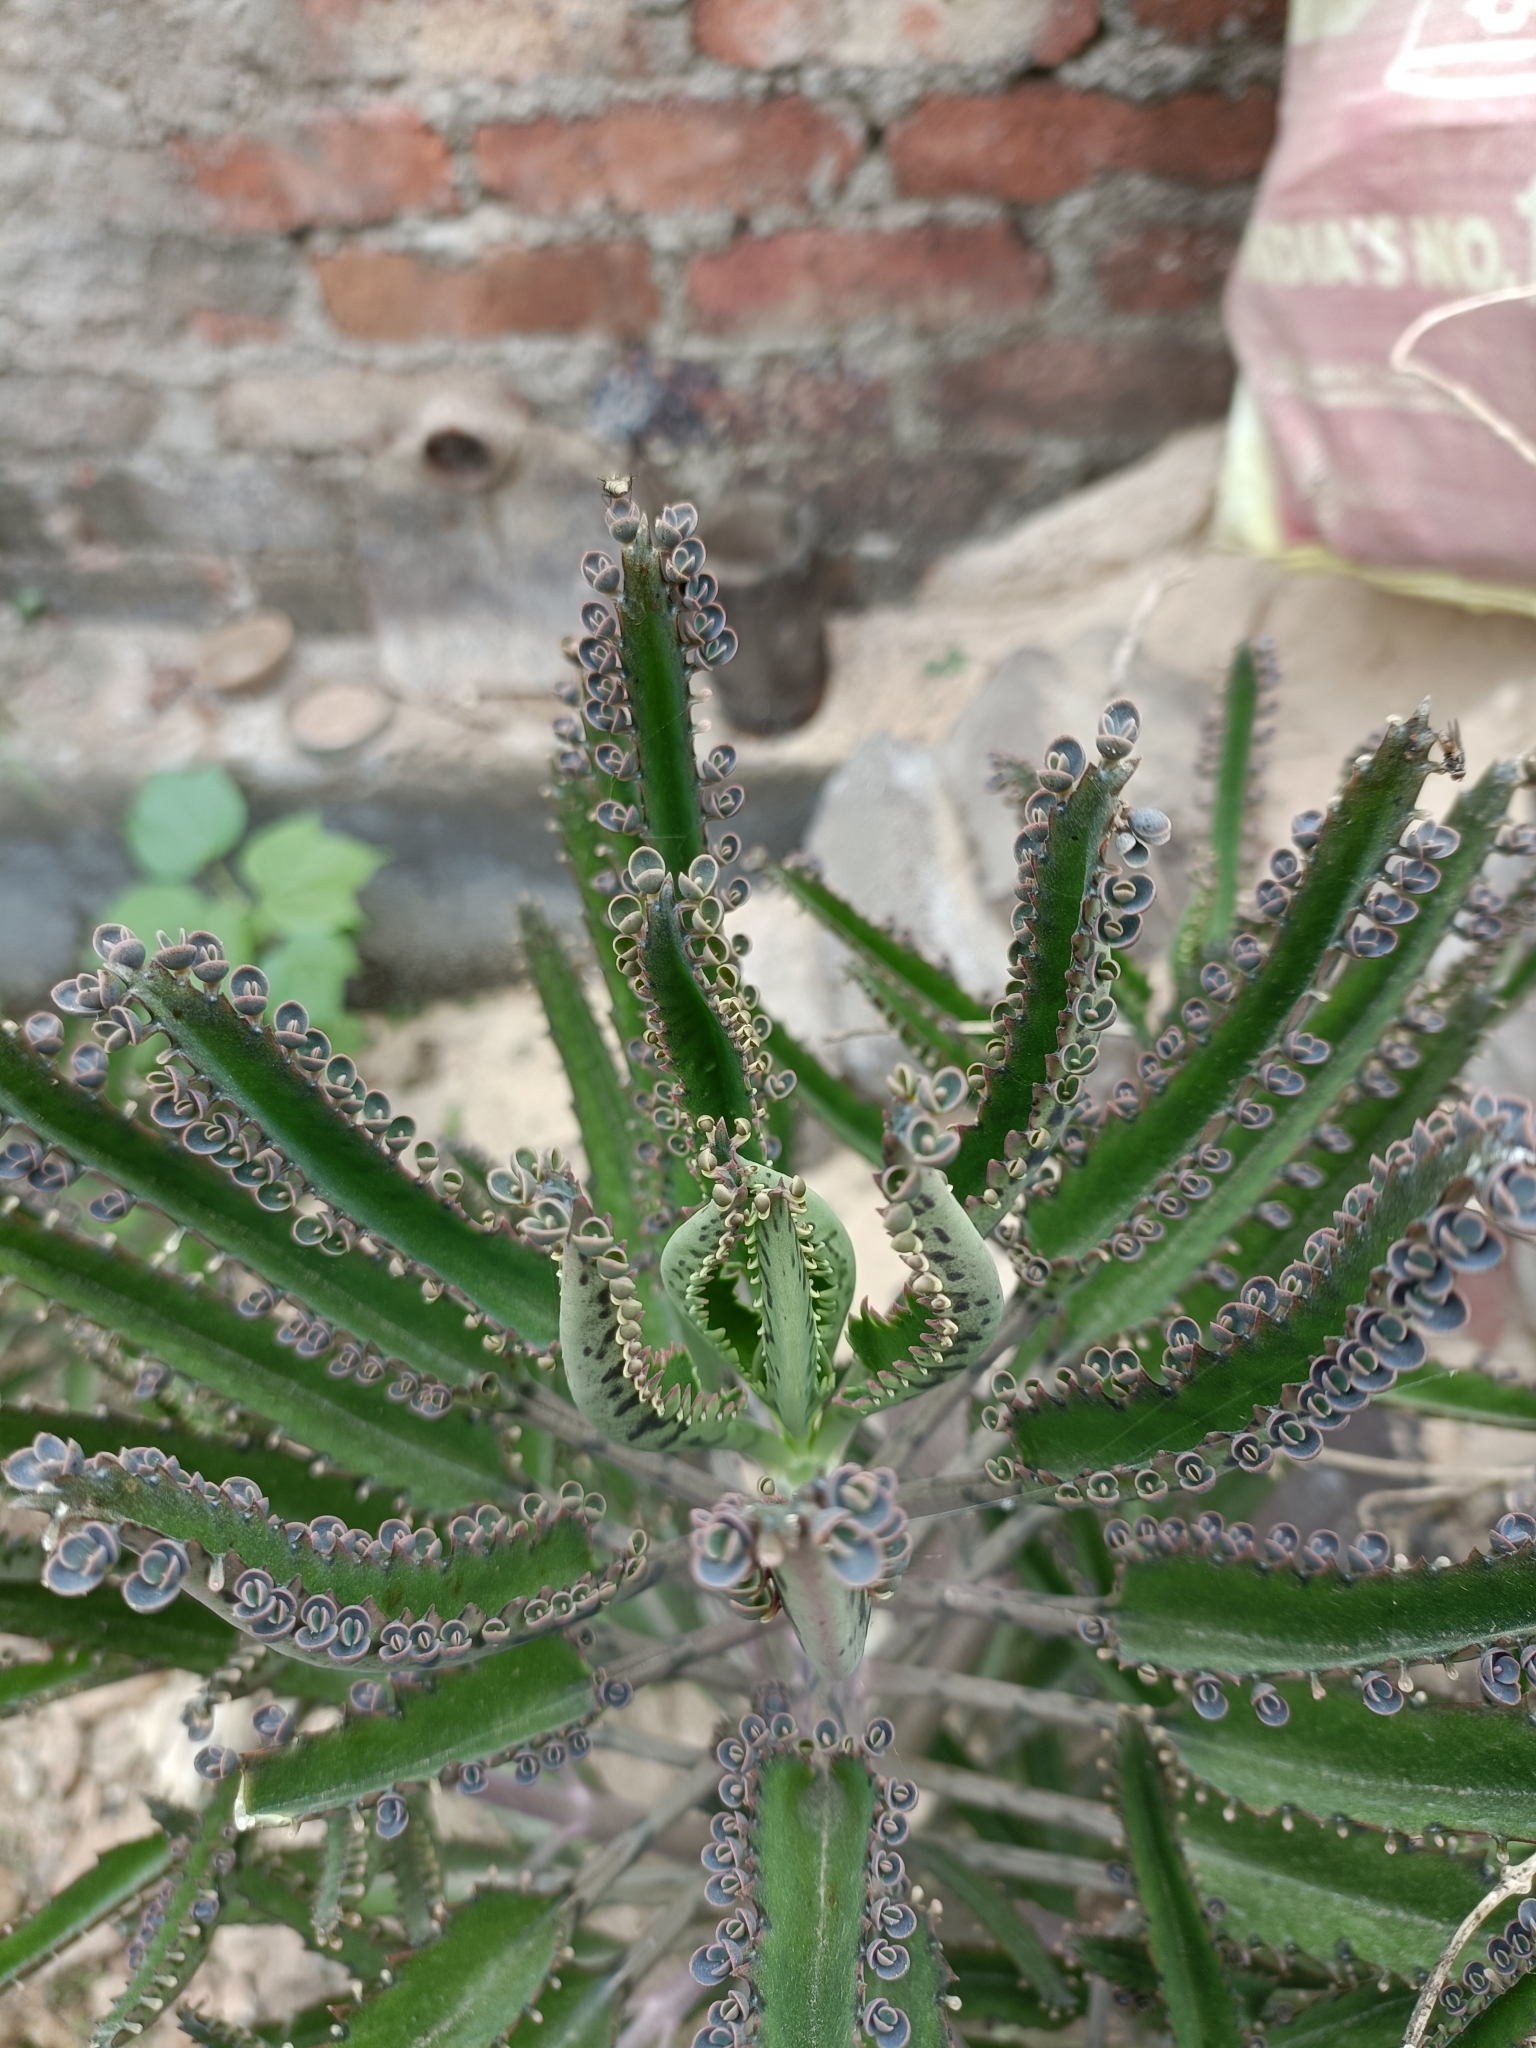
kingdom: Plantae
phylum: Tracheophyta
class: Magnoliopsida
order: Saxifragales
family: Crassulaceae
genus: Kalanchoe
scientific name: Kalanchoe houghtonii
